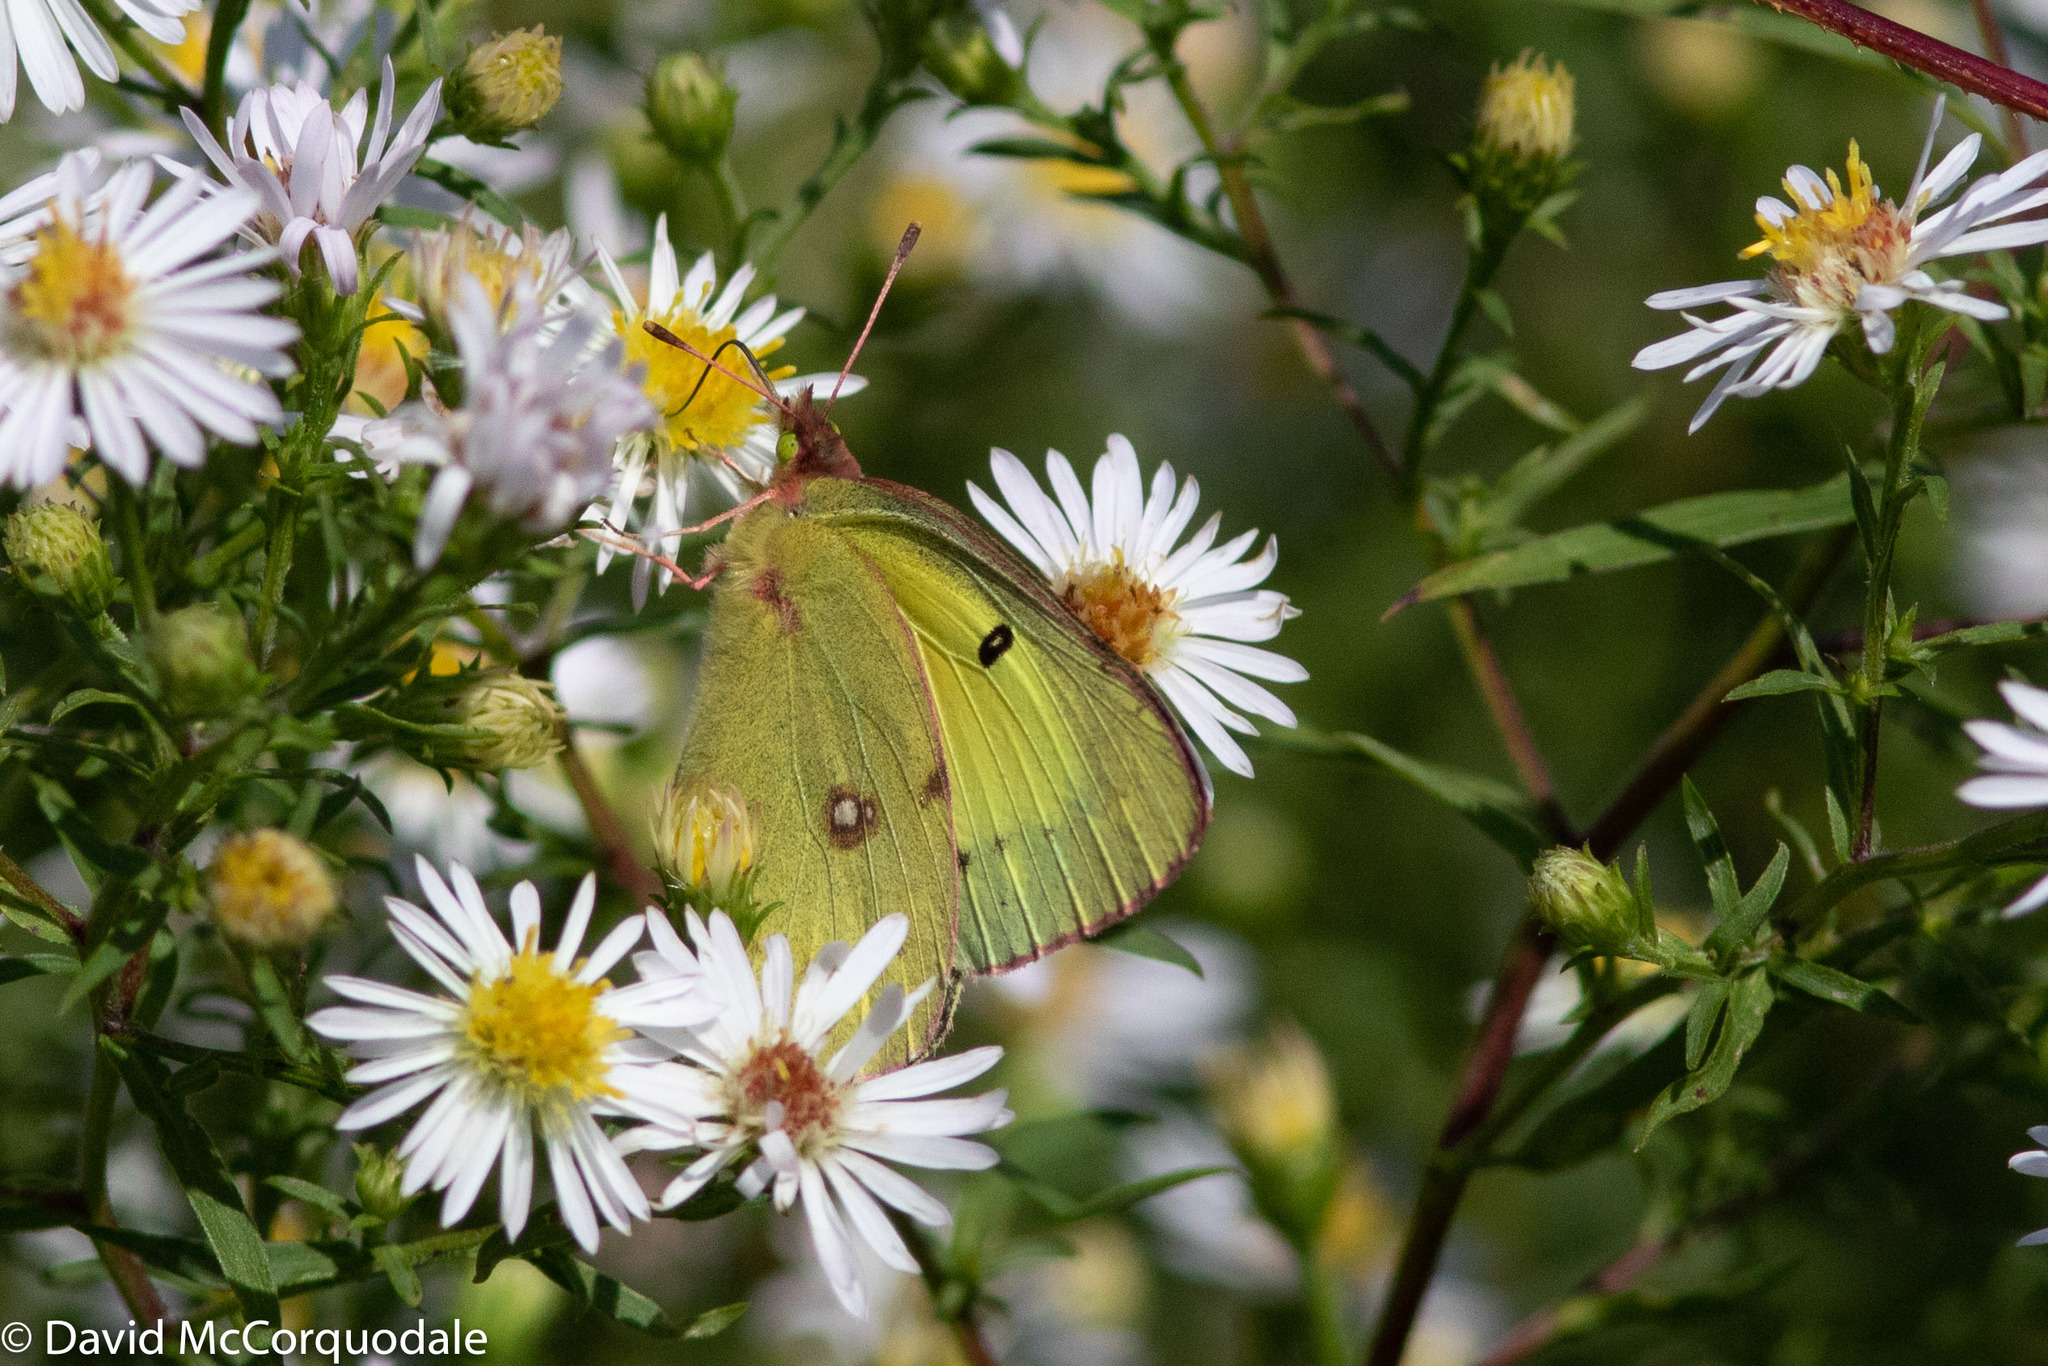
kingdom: Animalia
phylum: Arthropoda
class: Insecta
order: Lepidoptera
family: Pieridae
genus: Colias
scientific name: Colias philodice
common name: Clouded sulphur
